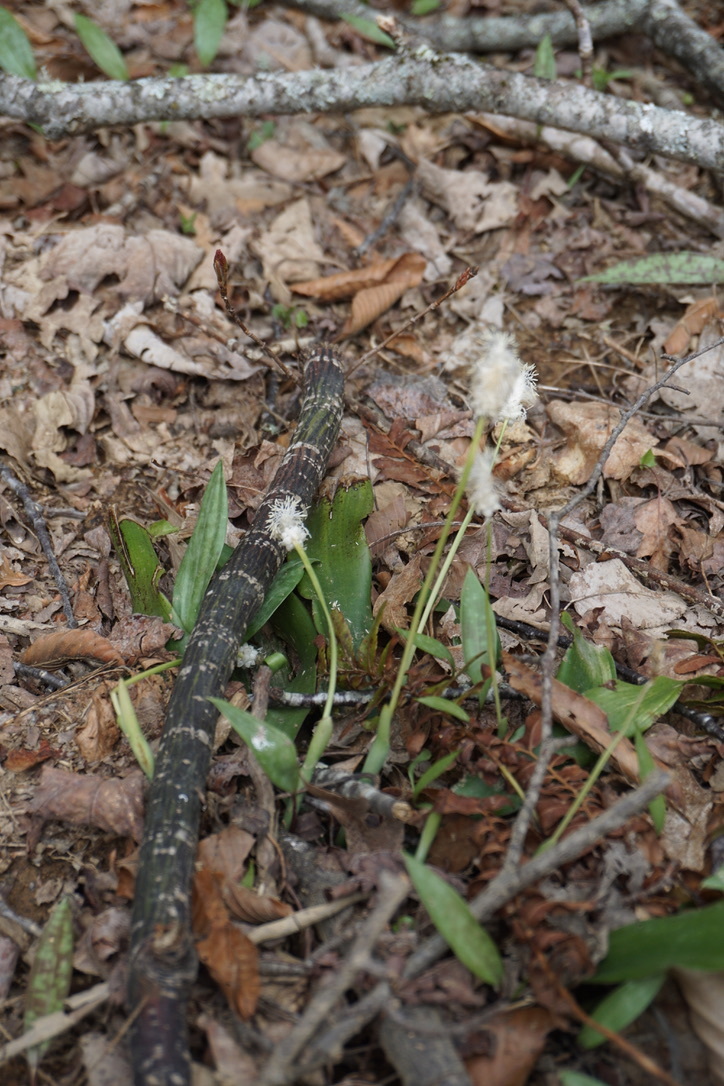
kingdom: Plantae
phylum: Tracheophyta
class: Liliopsida
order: Poales
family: Cyperaceae
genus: Carex
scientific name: Carex fraseriana
